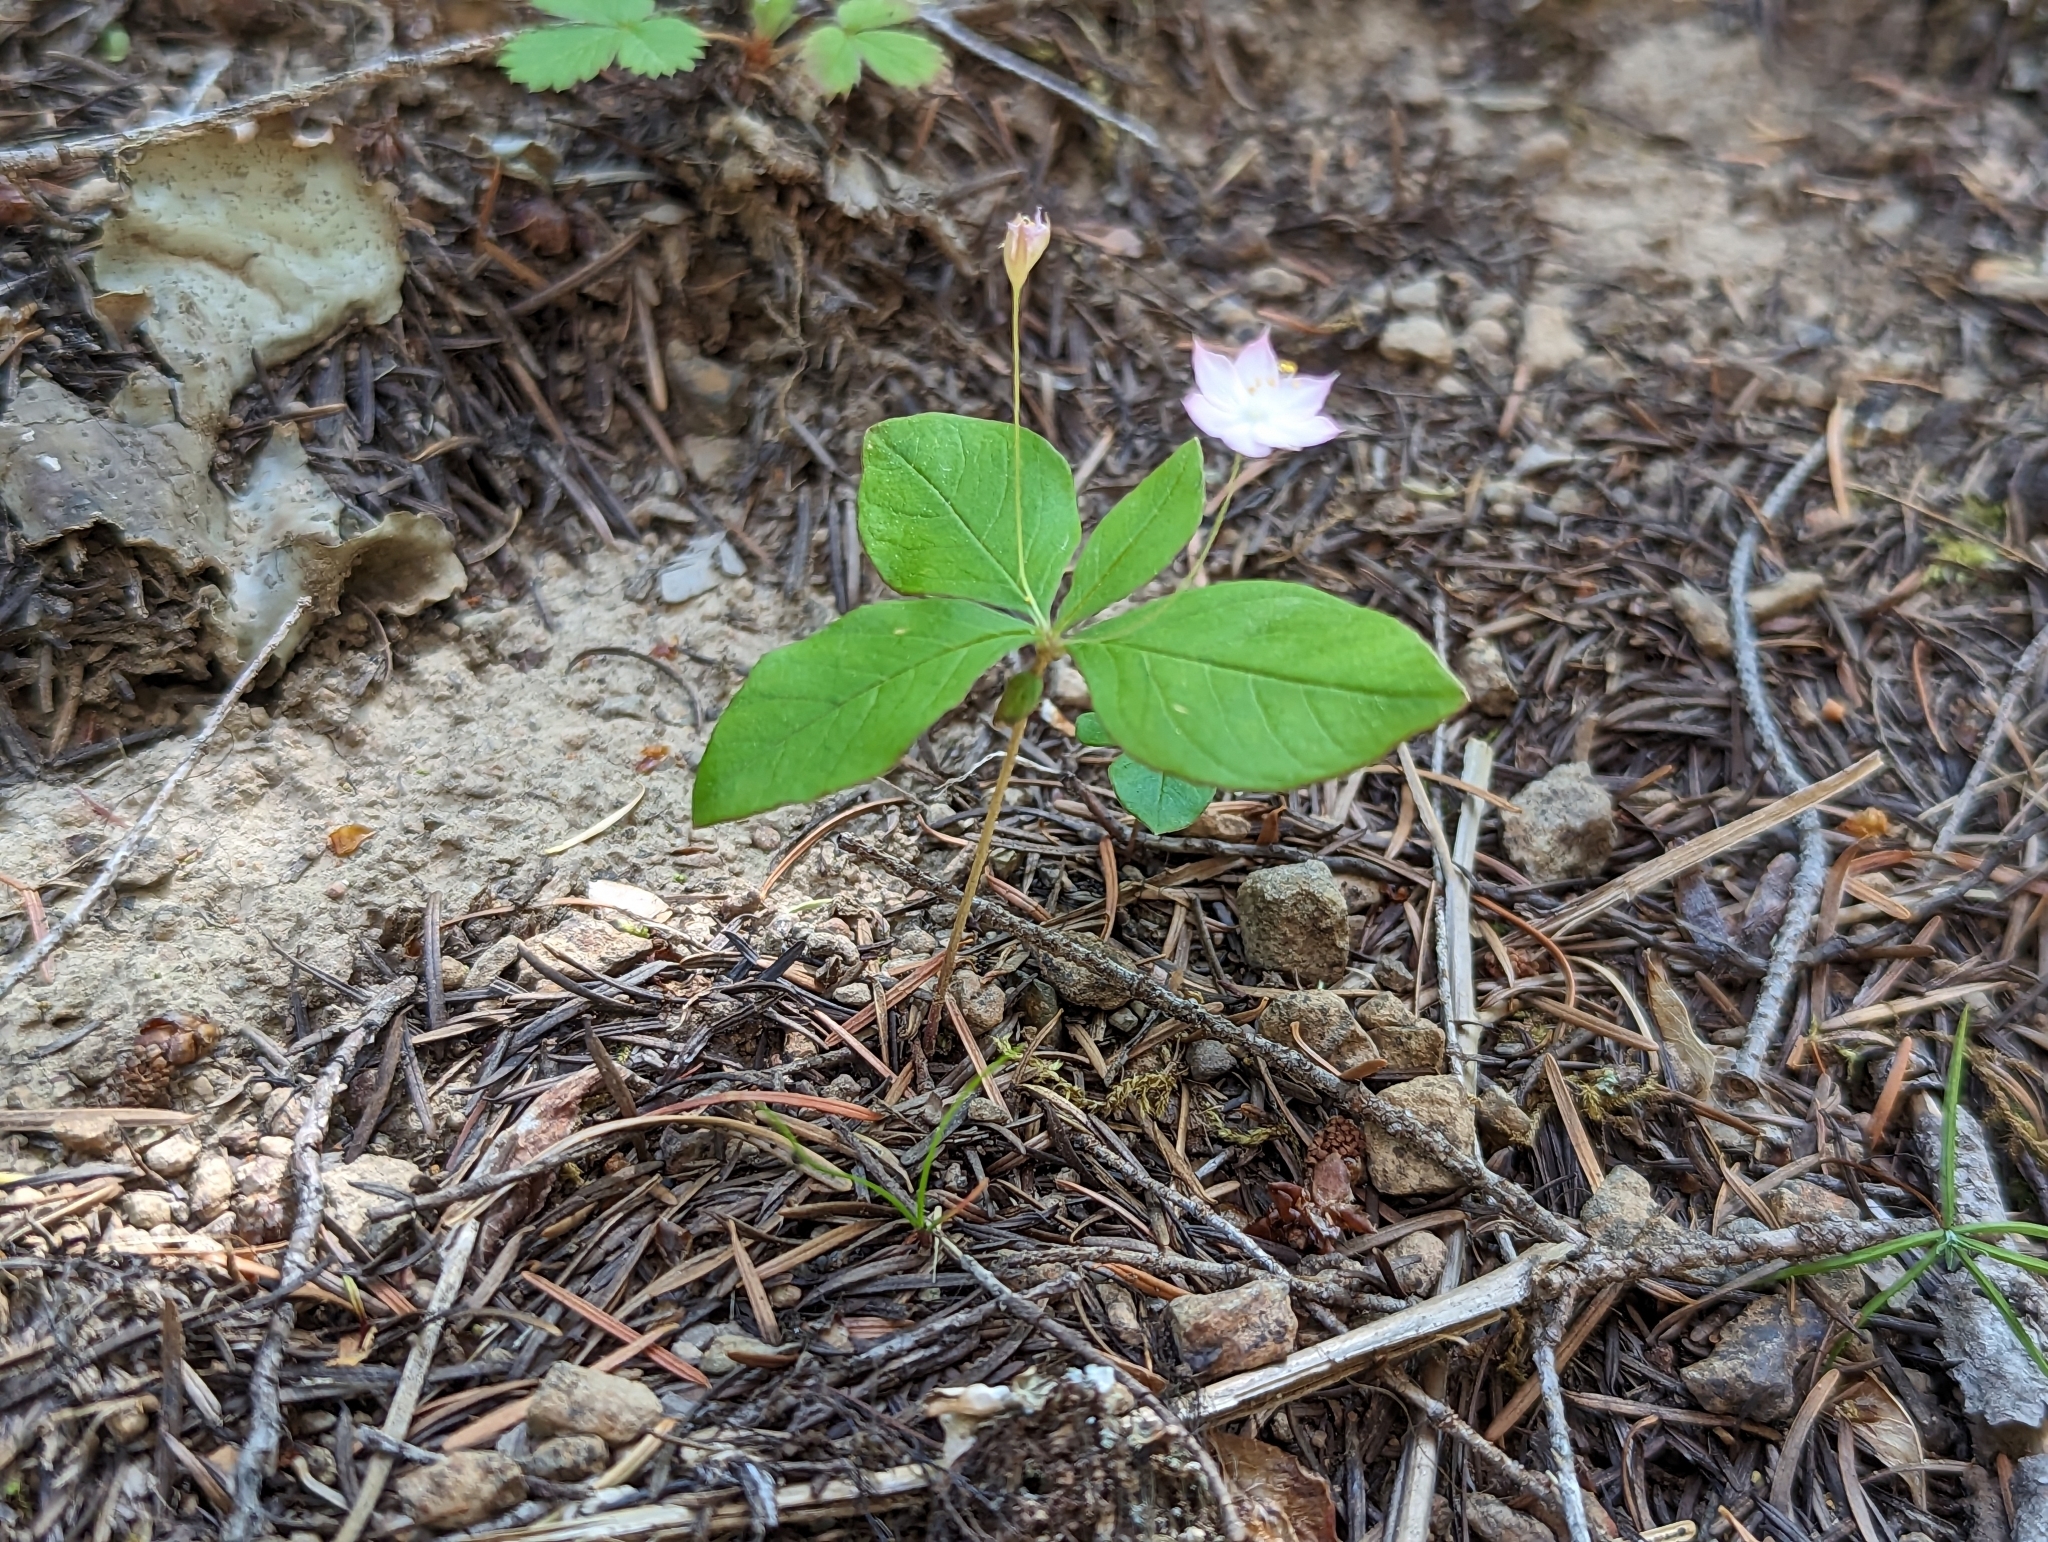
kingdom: Plantae
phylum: Tracheophyta
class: Magnoliopsida
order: Ericales
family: Primulaceae
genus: Lysimachia
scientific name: Lysimachia latifolia
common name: Pacific starflower
